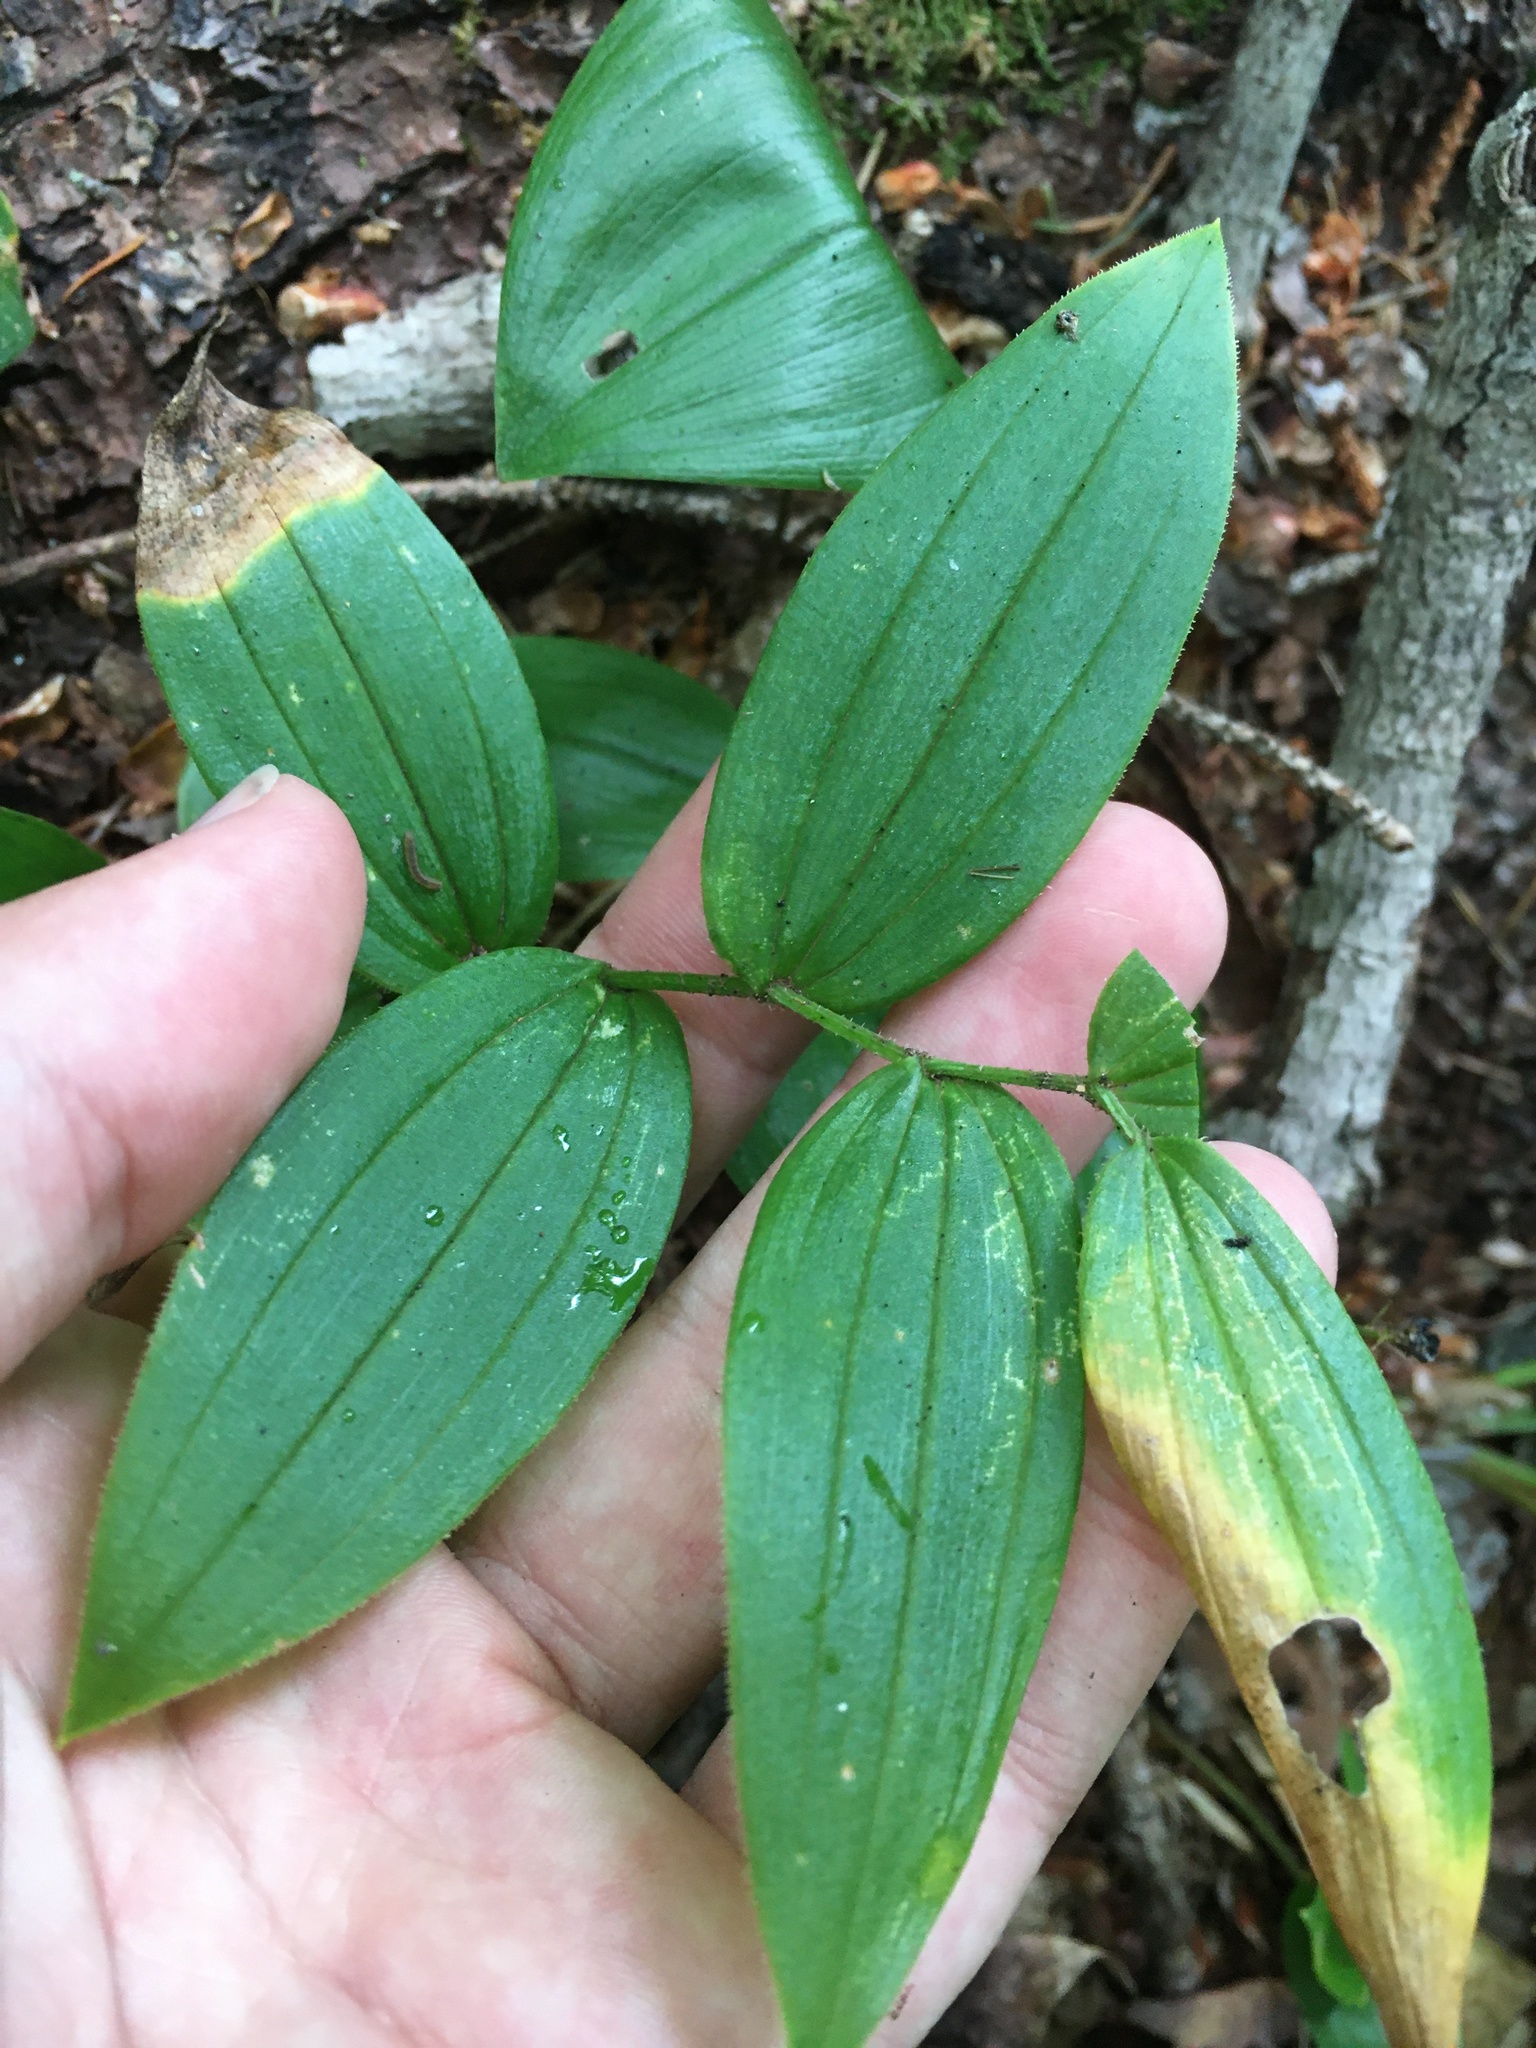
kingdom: Plantae
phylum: Tracheophyta
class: Liliopsida
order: Liliales
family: Liliaceae
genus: Streptopus
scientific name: Streptopus lanceolatus
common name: Rose mandarin
